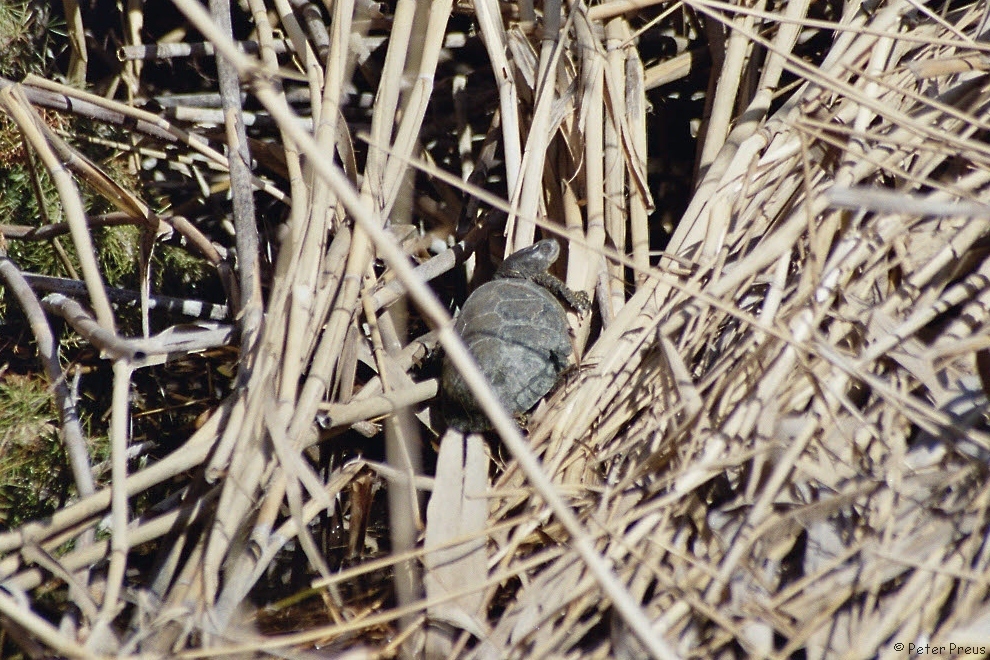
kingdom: Animalia
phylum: Chordata
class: Testudines
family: Emydidae
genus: Emys
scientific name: Emys orbicularis
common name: European pond turtle
